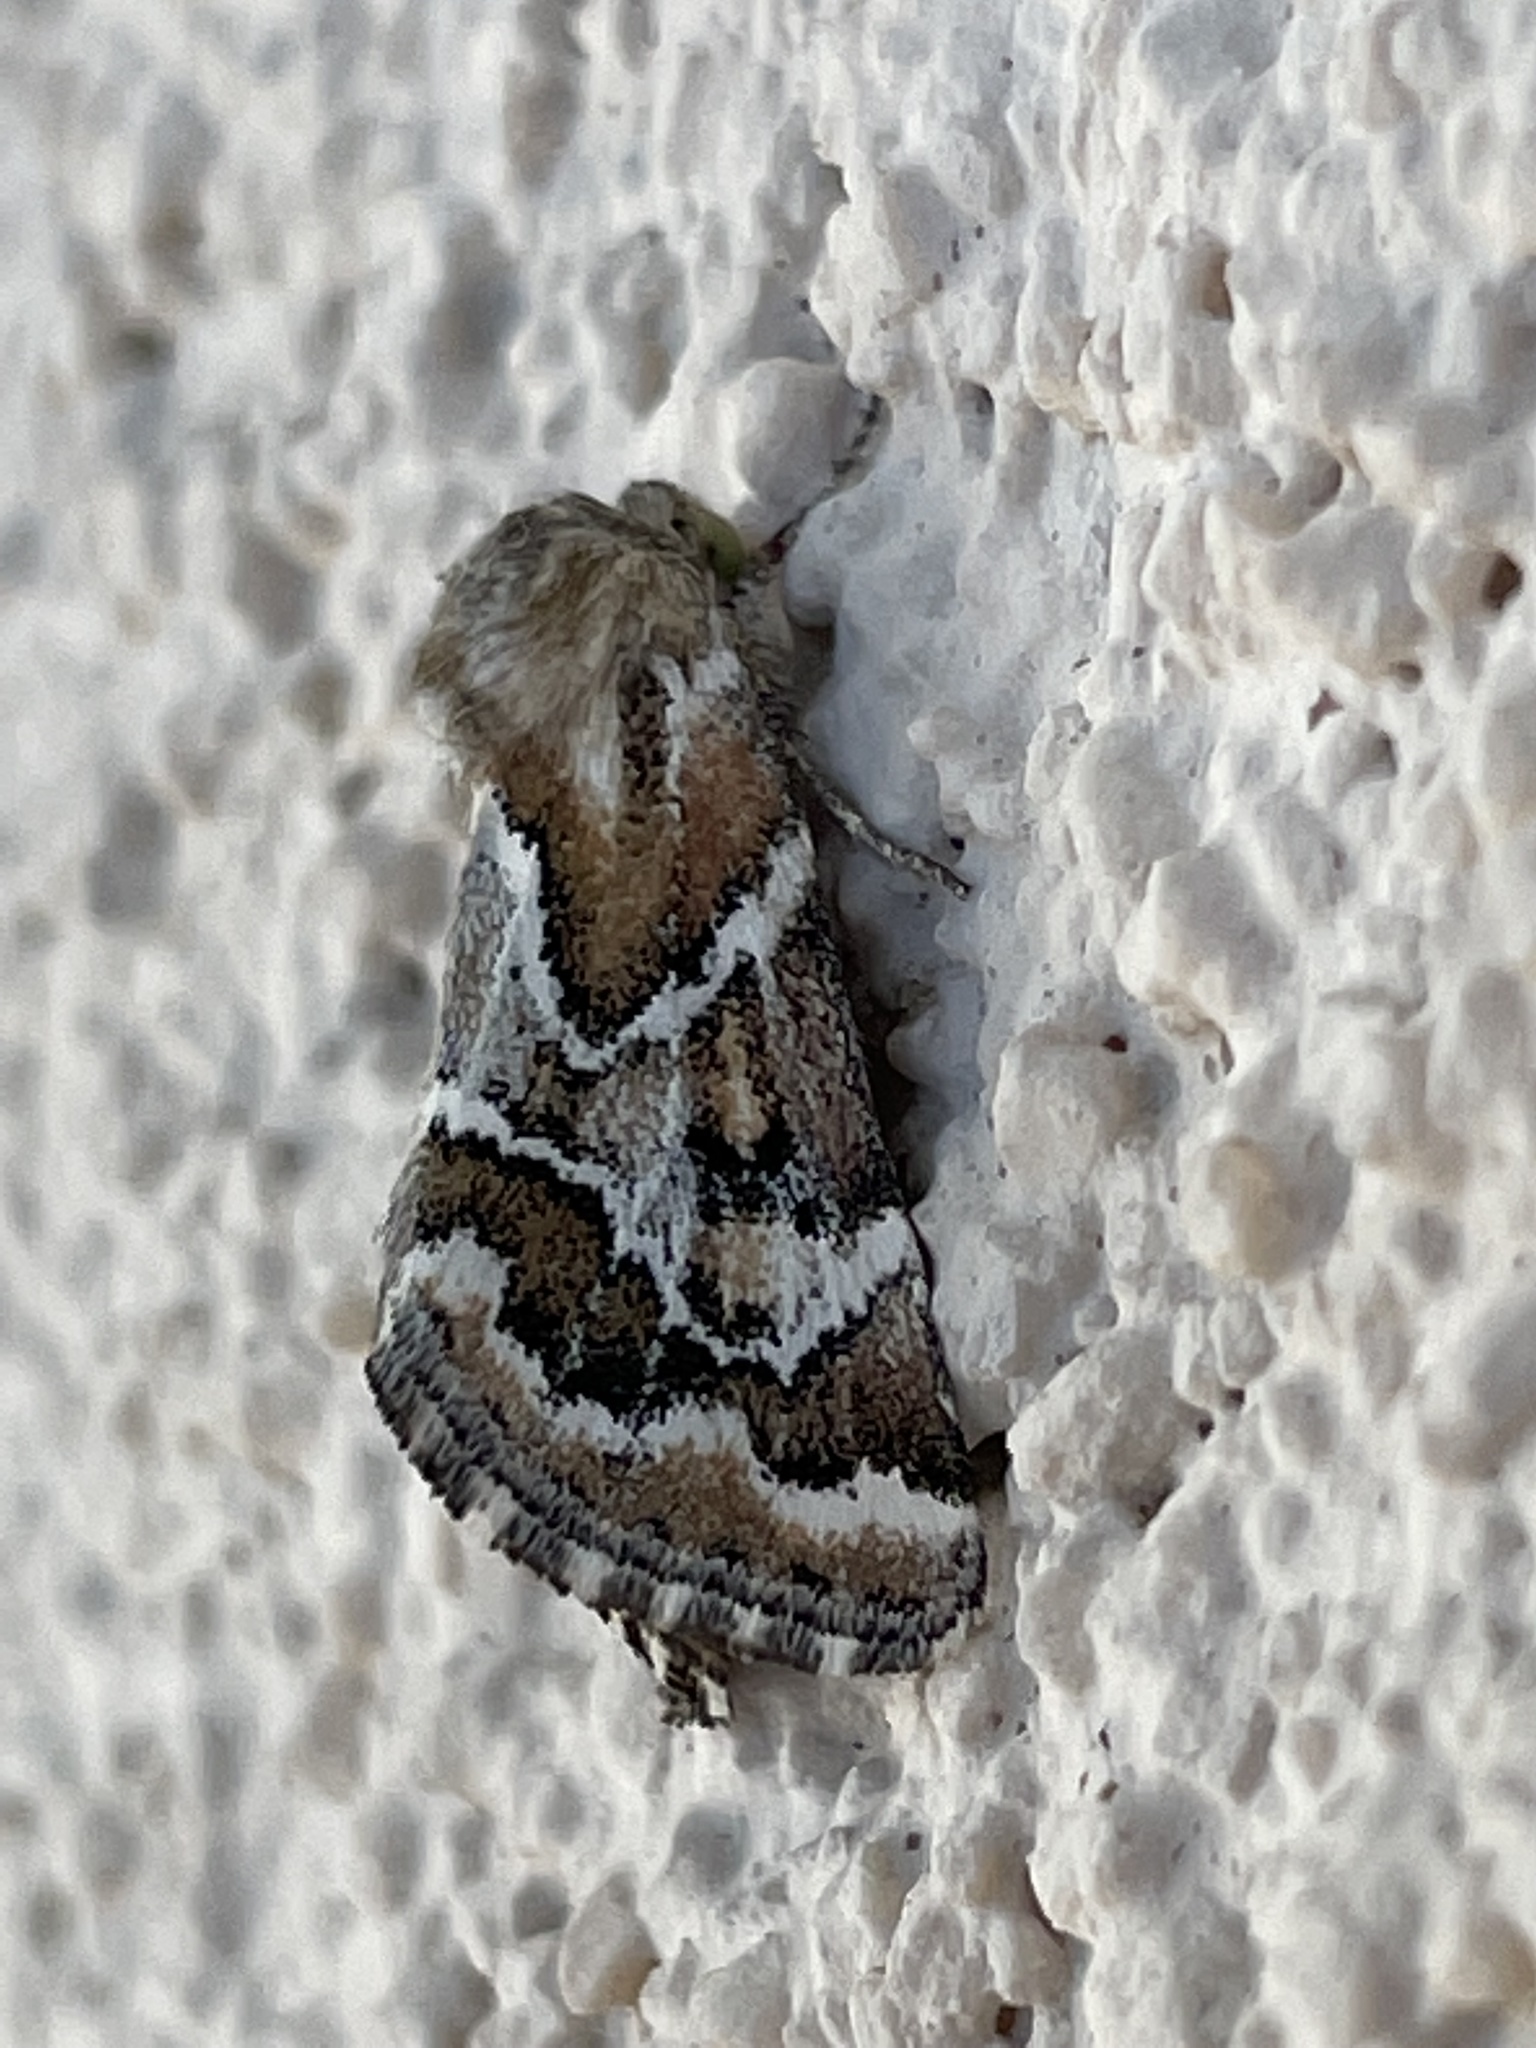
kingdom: Animalia
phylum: Arthropoda
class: Insecta
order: Lepidoptera
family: Noctuidae
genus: Schinia
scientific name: Schinia acutilinea
